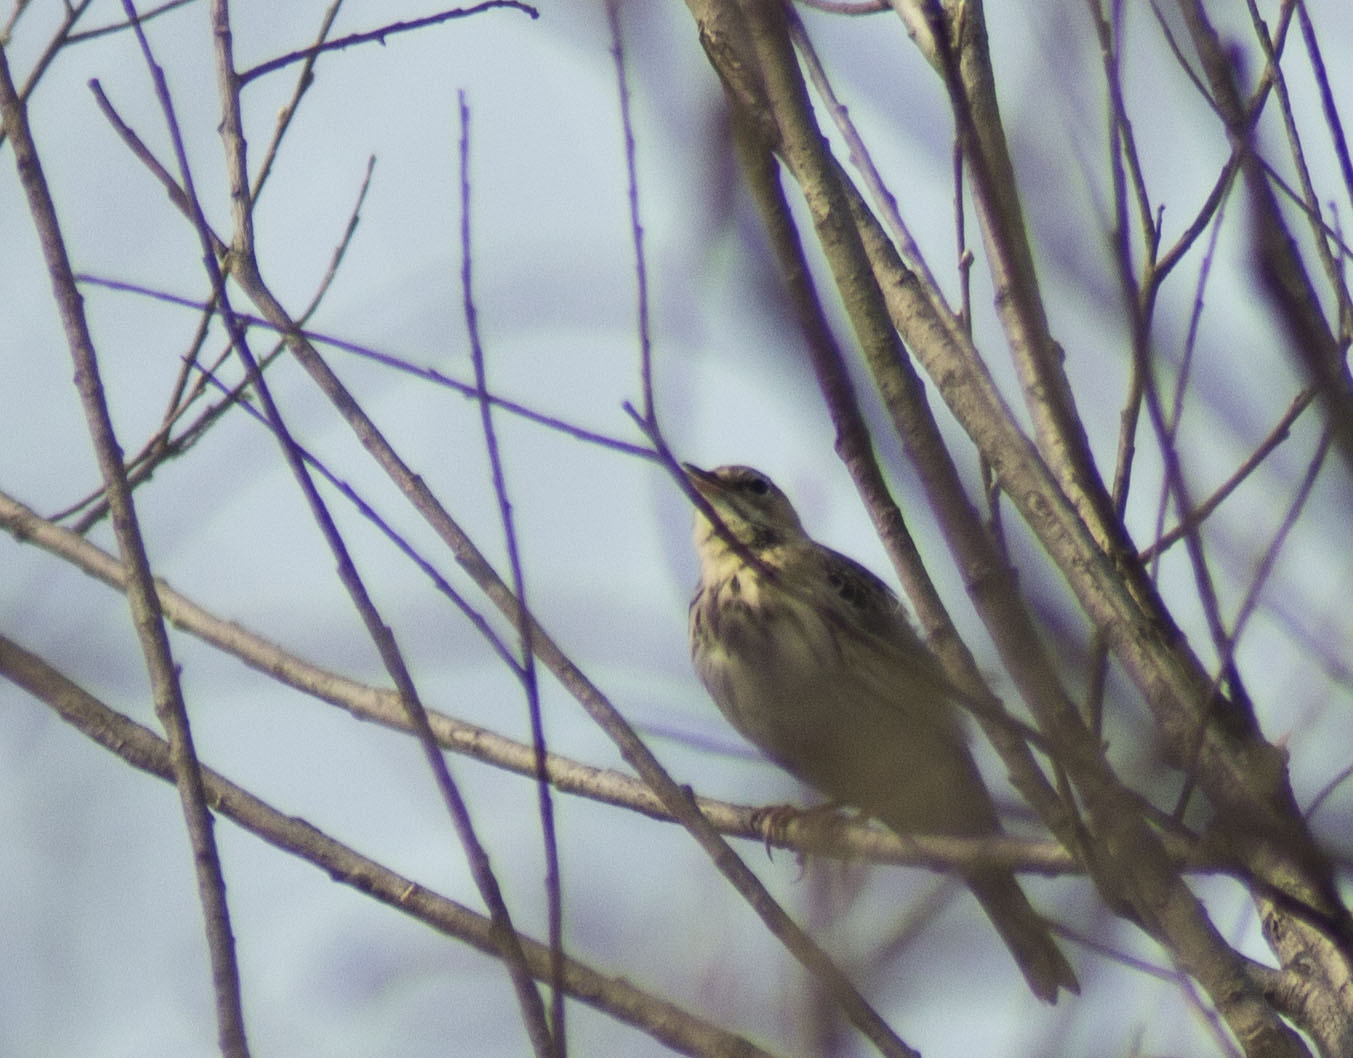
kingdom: Animalia
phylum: Chordata
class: Aves
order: Passeriformes
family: Motacillidae
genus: Anthus
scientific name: Anthus trivialis
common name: Tree pipit
